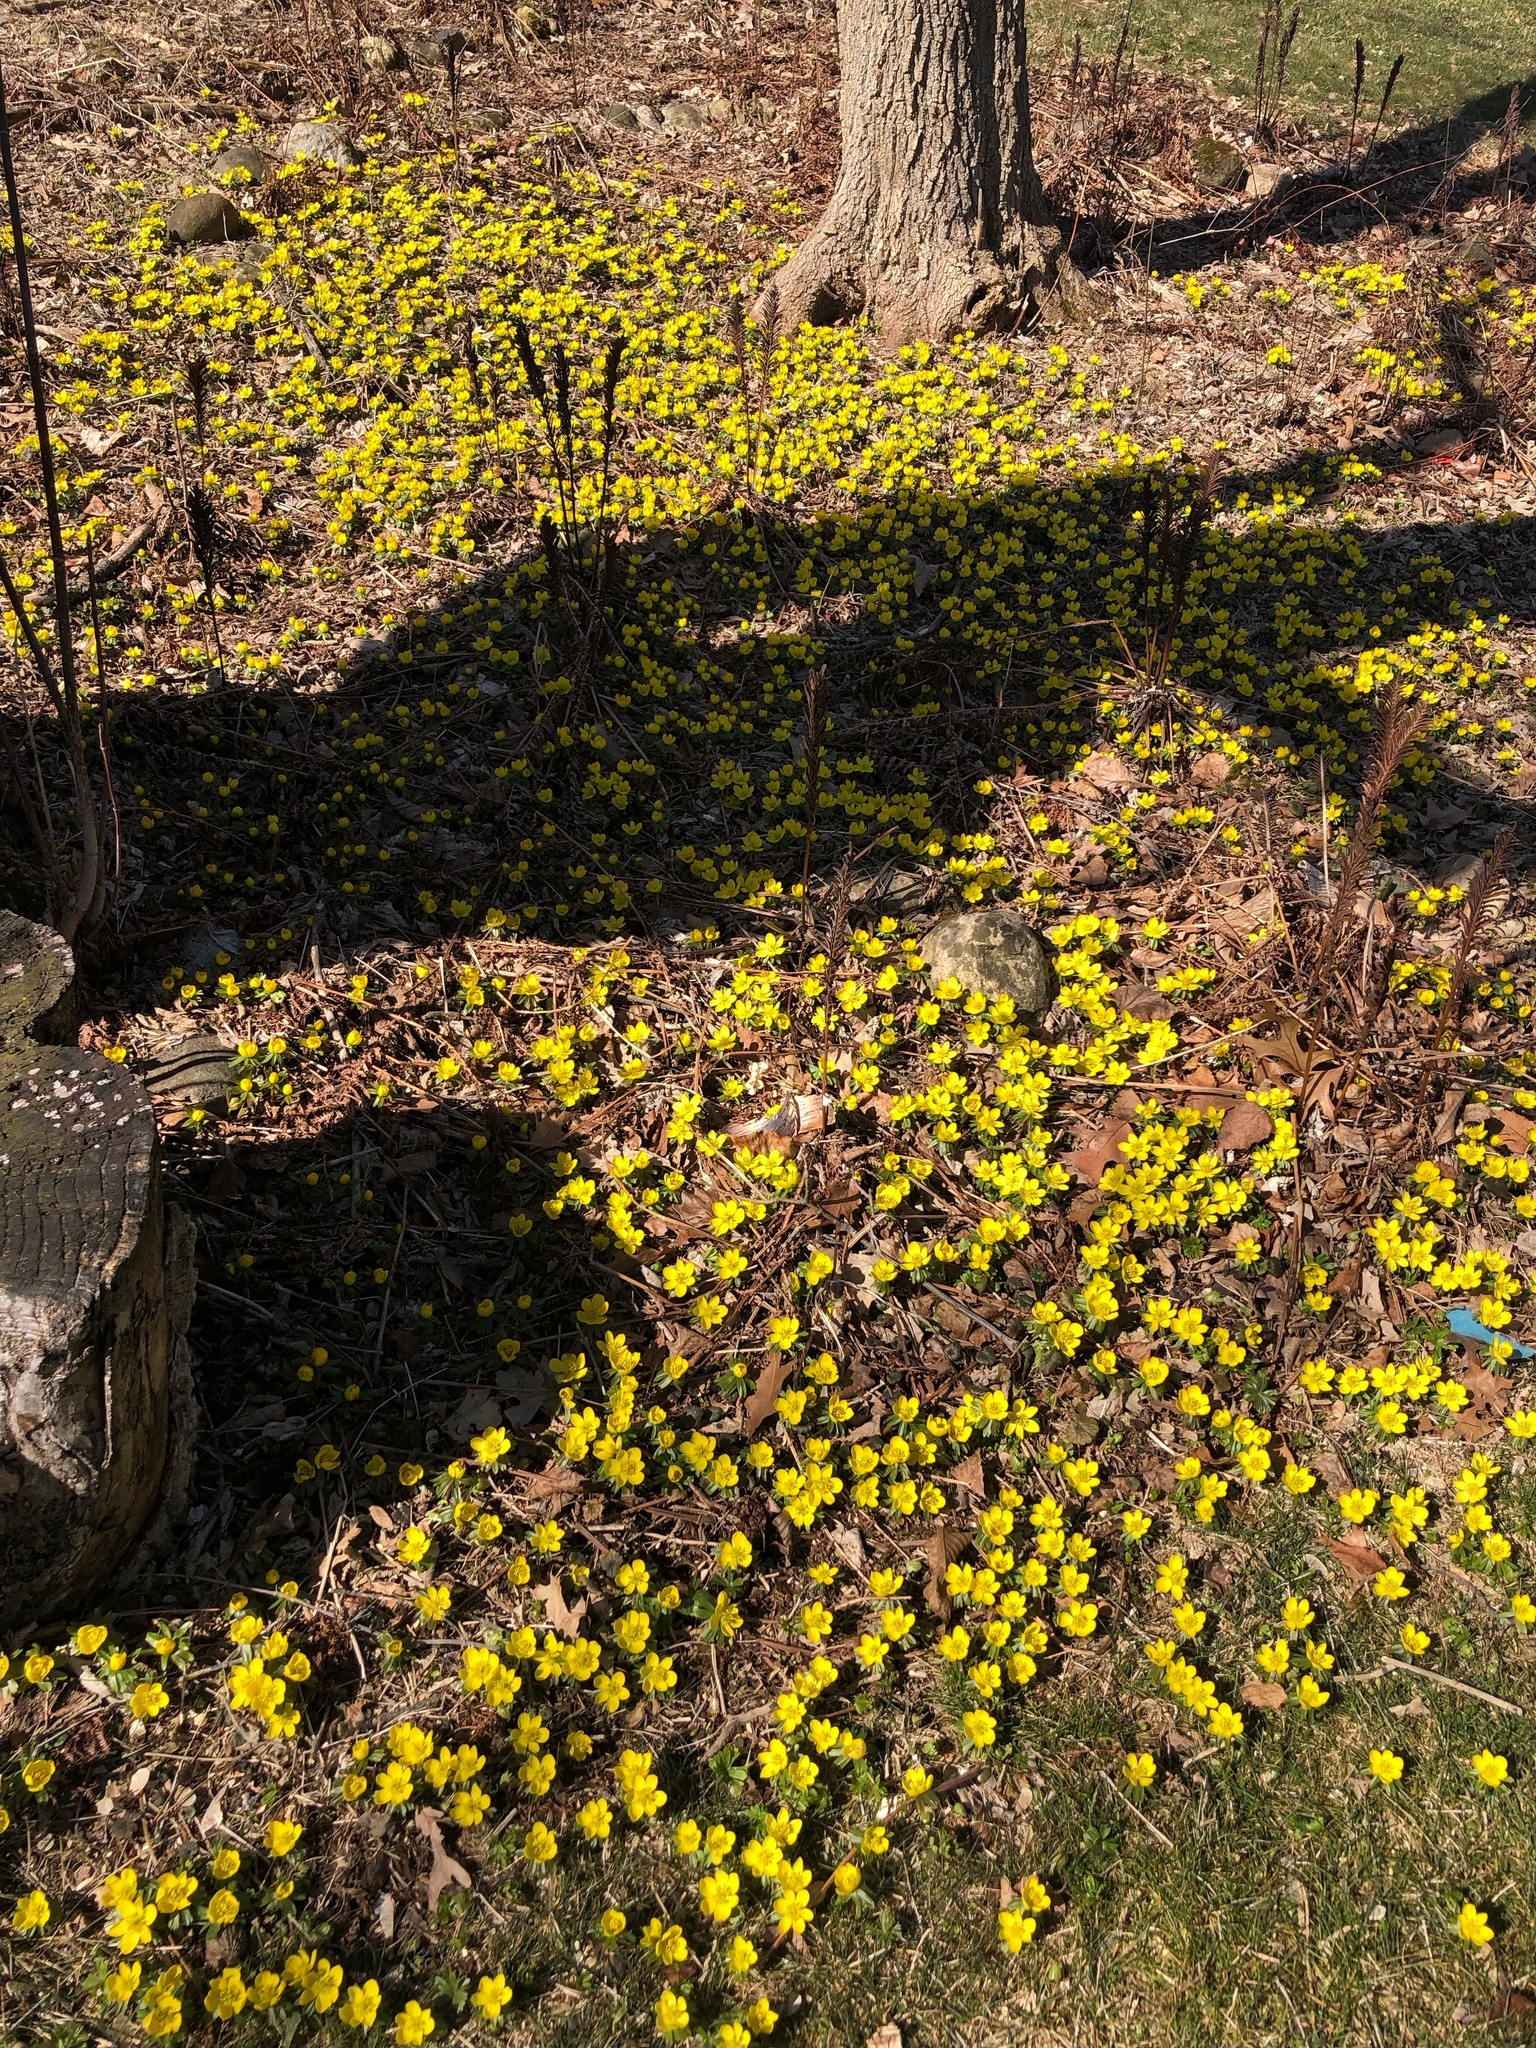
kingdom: Plantae
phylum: Tracheophyta
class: Magnoliopsida
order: Ranunculales
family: Ranunculaceae
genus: Eranthis
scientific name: Eranthis hyemalis
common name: Winter aconite
